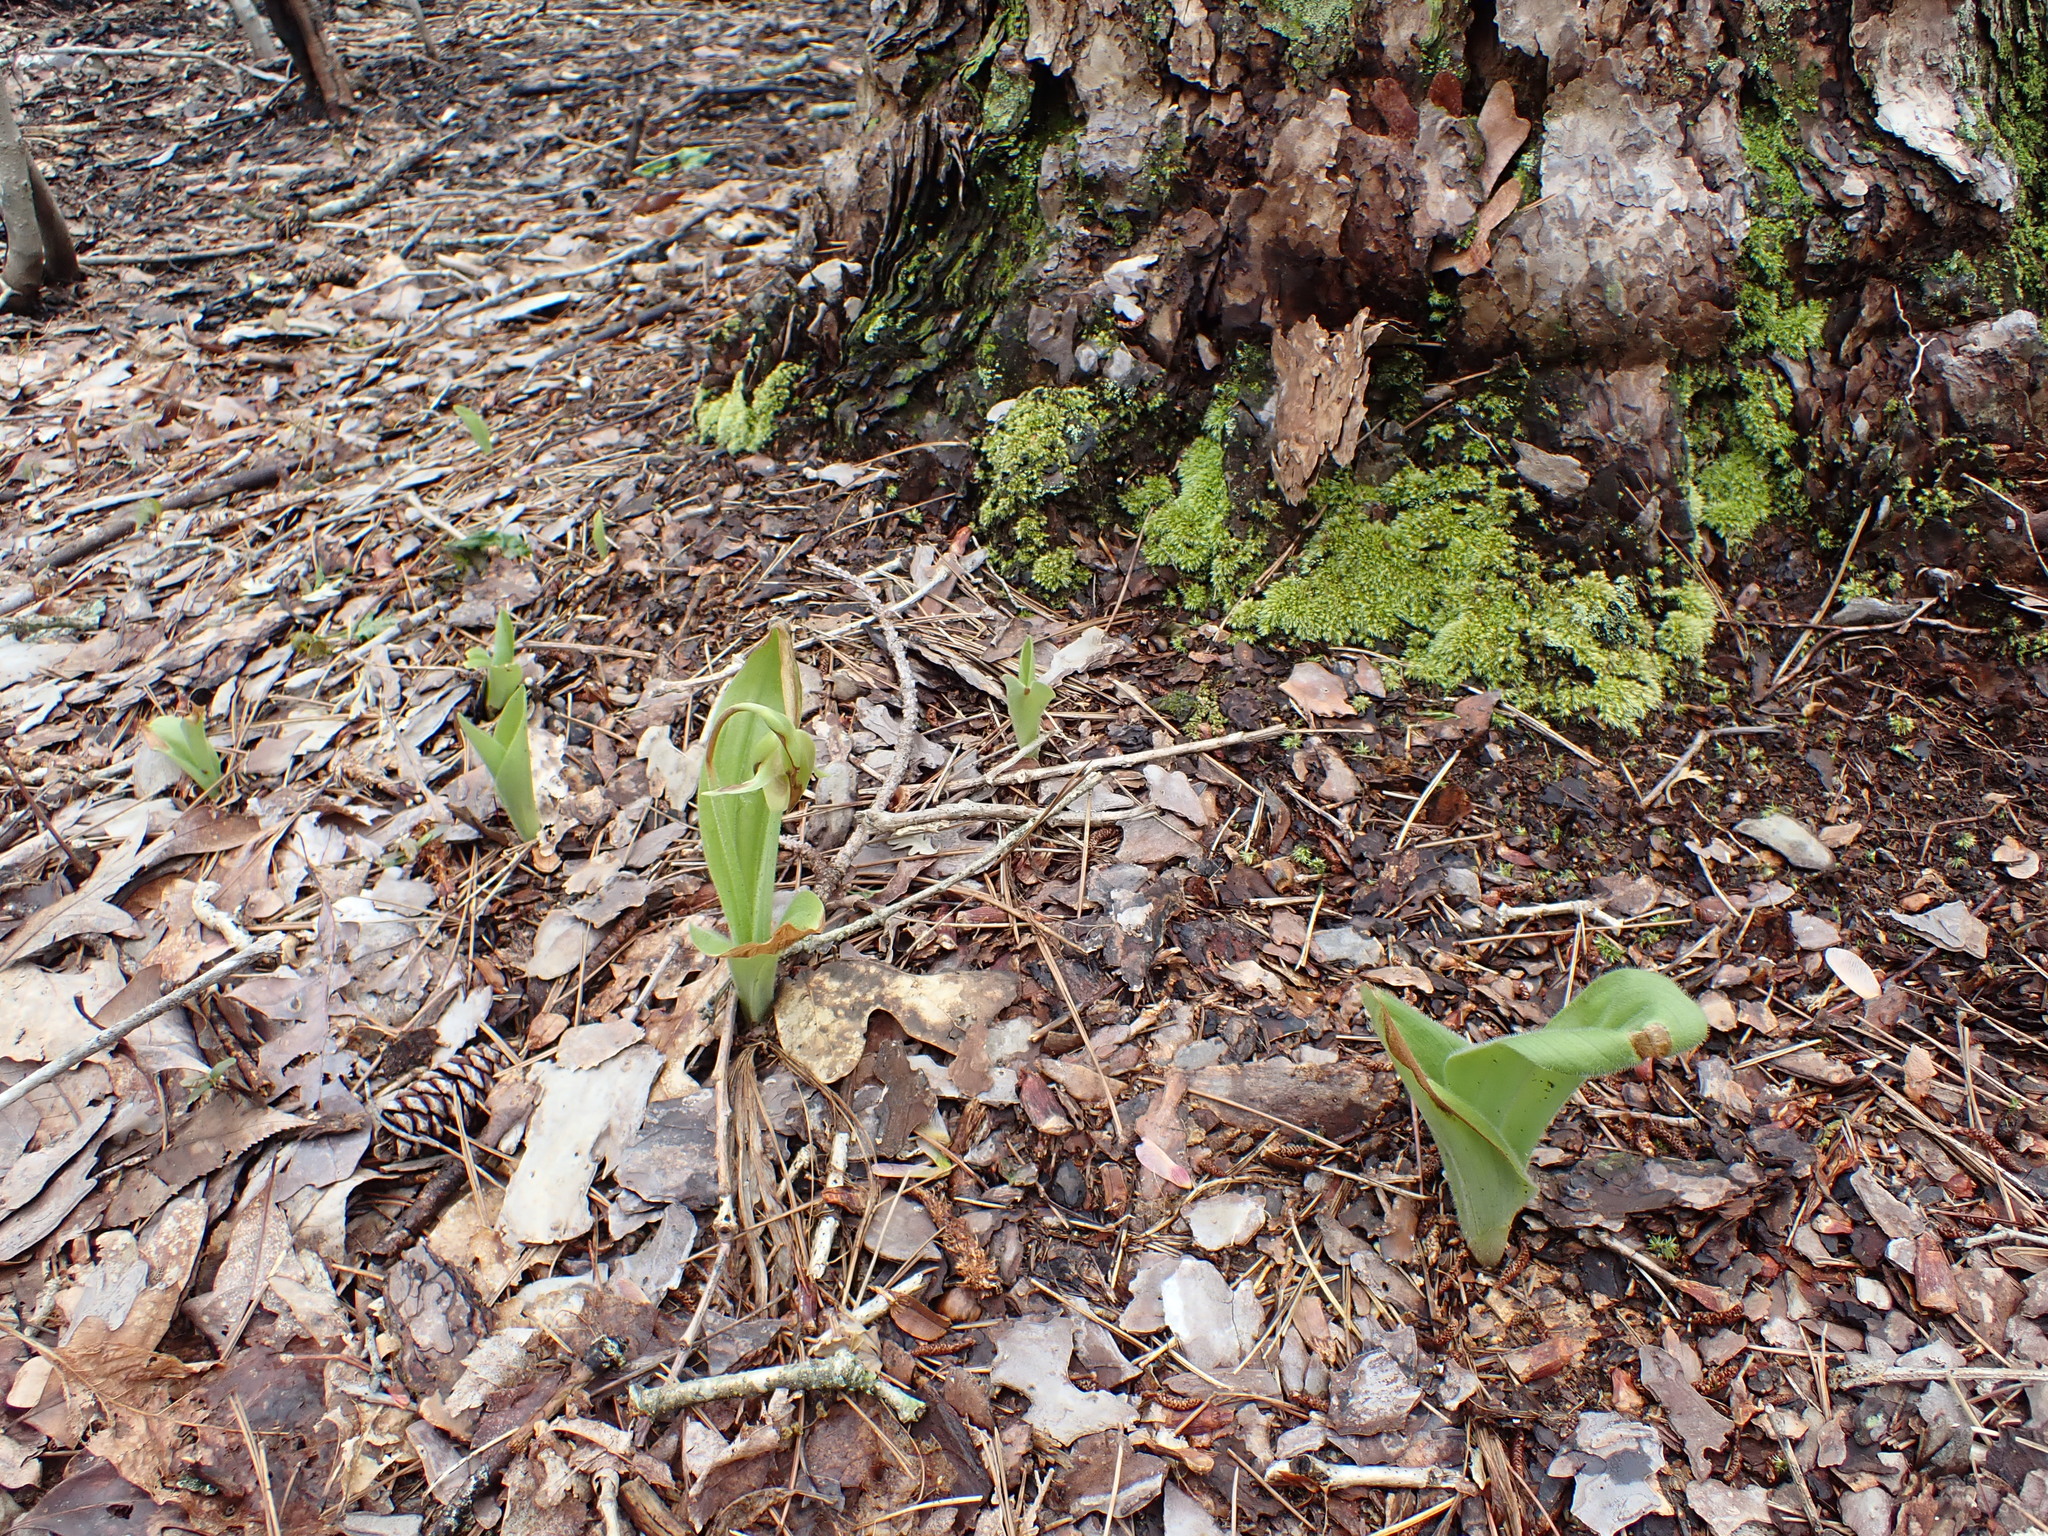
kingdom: Plantae
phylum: Tracheophyta
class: Liliopsida
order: Asparagales
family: Orchidaceae
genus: Cypripedium
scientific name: Cypripedium acaule
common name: Pink lady's-slipper
